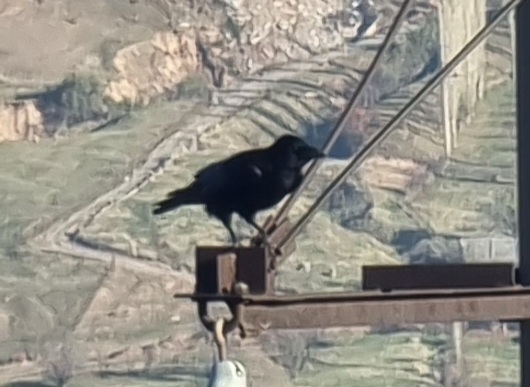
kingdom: Animalia
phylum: Chordata
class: Aves
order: Passeriformes
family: Corvidae
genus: Corvus
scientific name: Corvus corone
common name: Carrion crow
